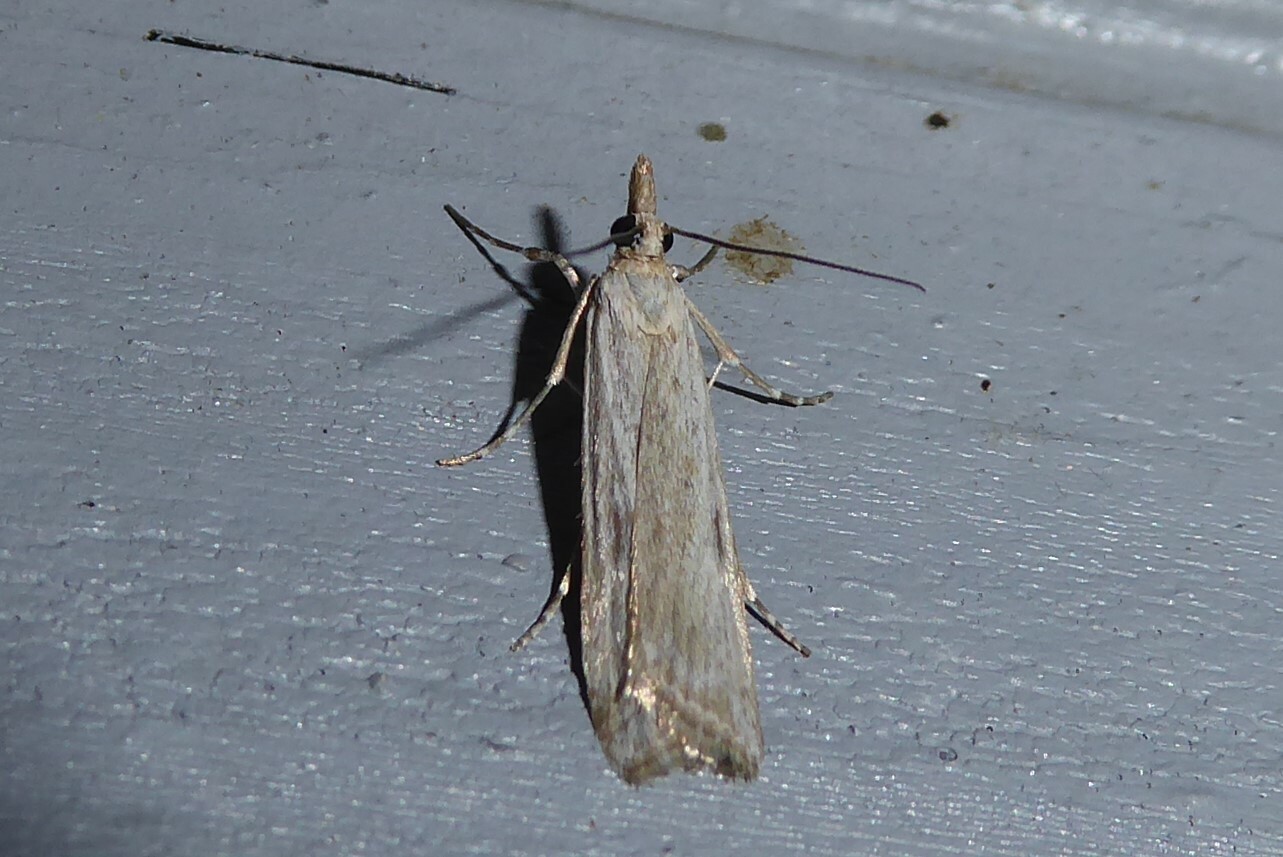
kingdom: Animalia
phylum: Arthropoda
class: Insecta
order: Lepidoptera
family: Crambidae
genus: Eudonia
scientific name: Eudonia leptalea
